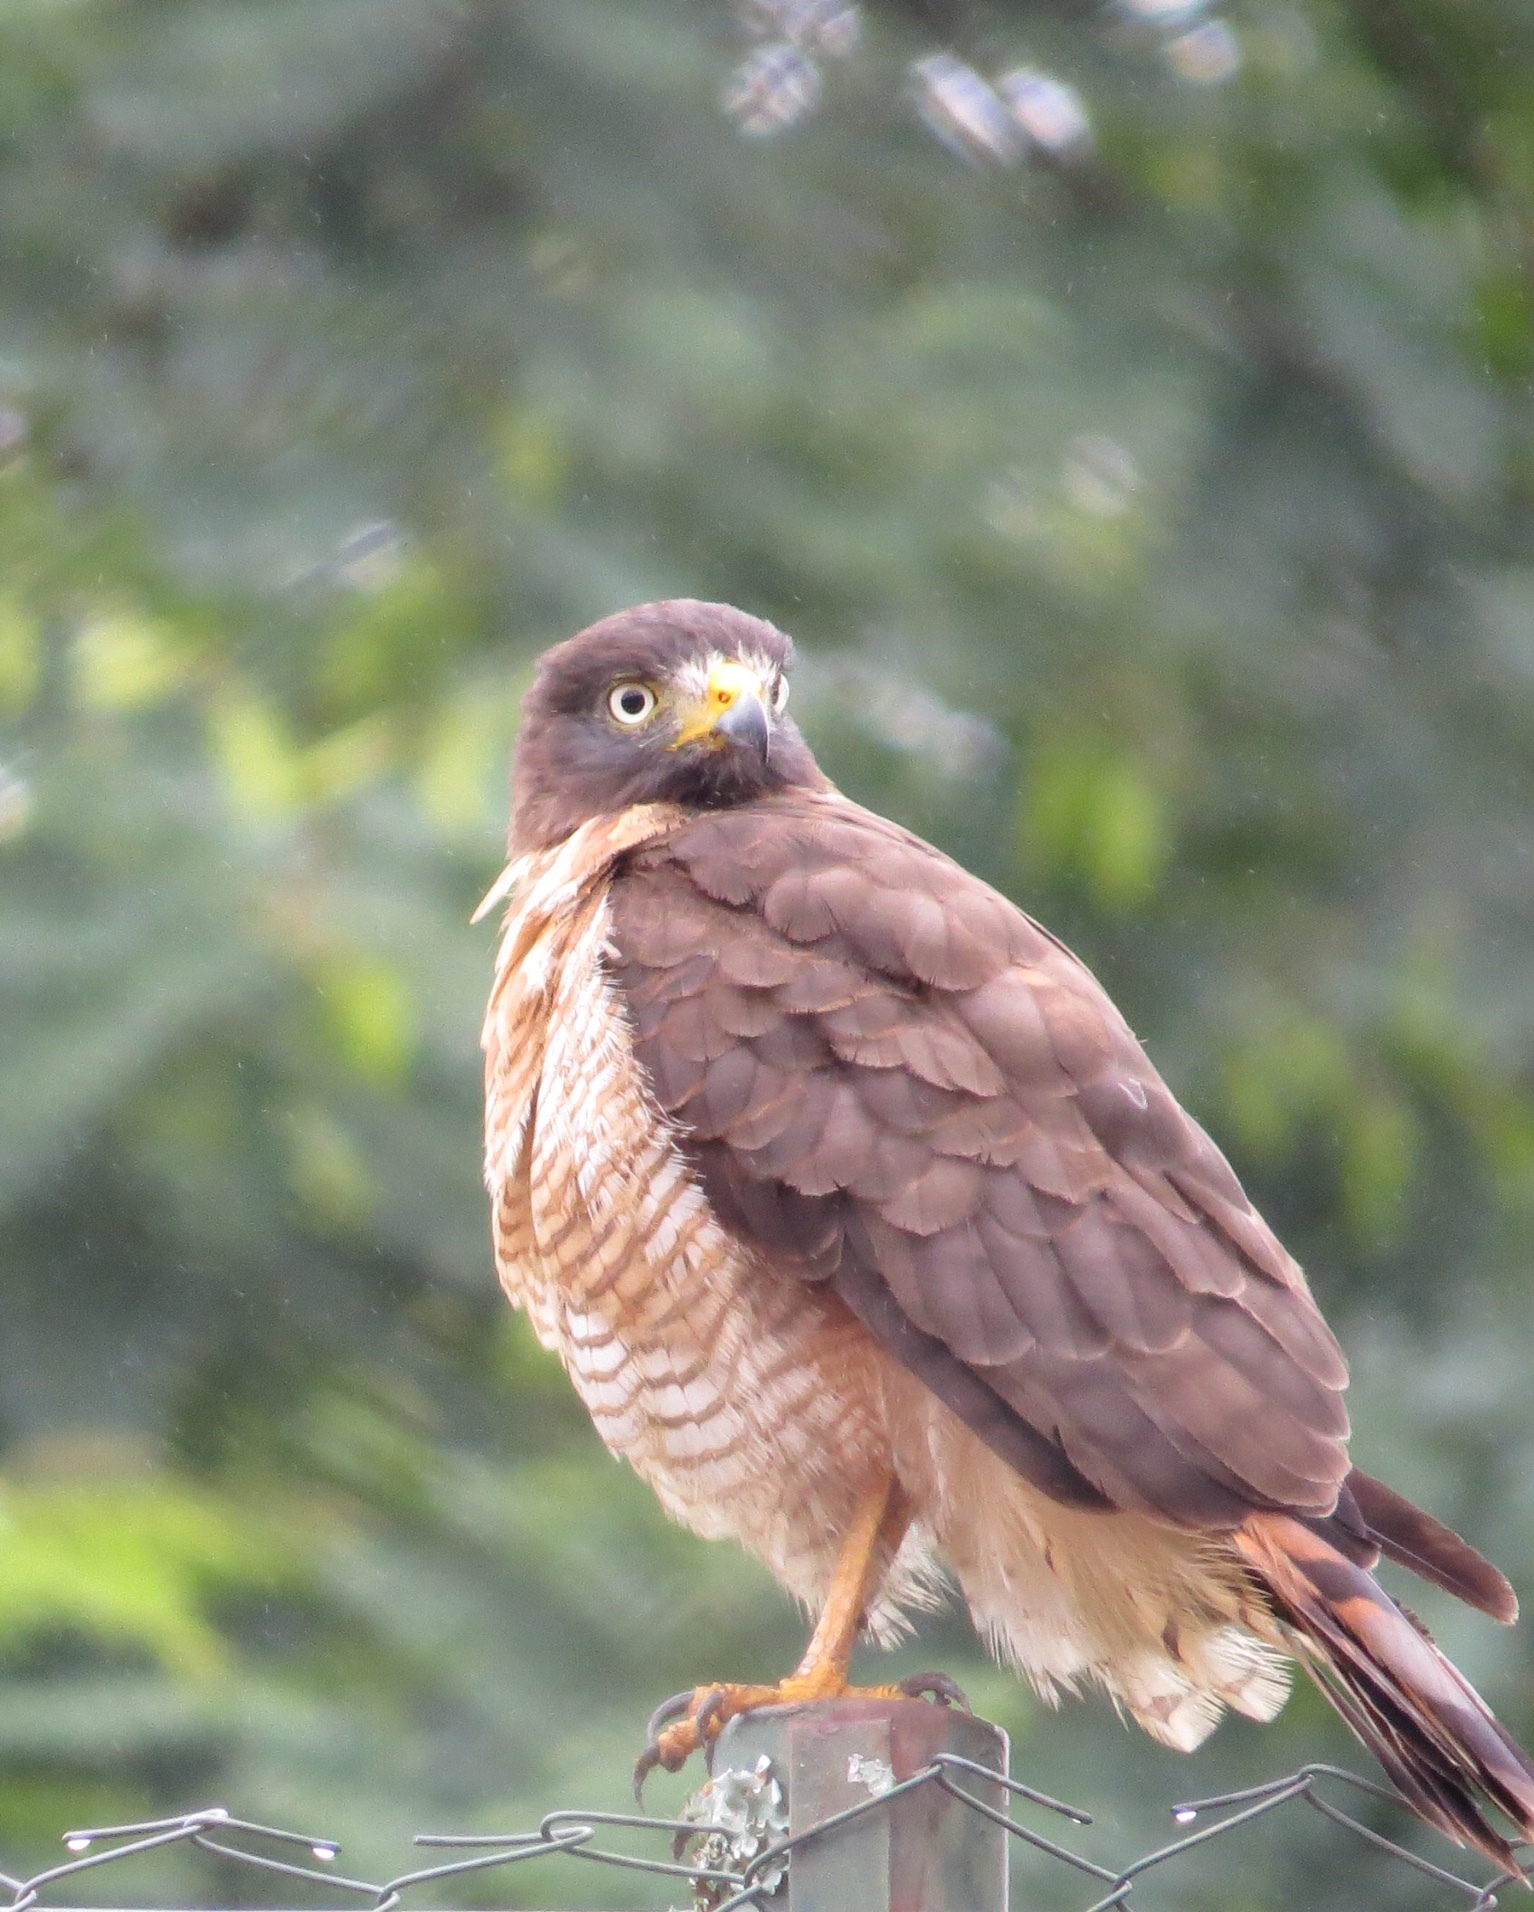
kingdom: Animalia
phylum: Chordata
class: Aves
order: Accipitriformes
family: Accipitridae
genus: Rupornis
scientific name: Rupornis magnirostris
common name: Roadside hawk
